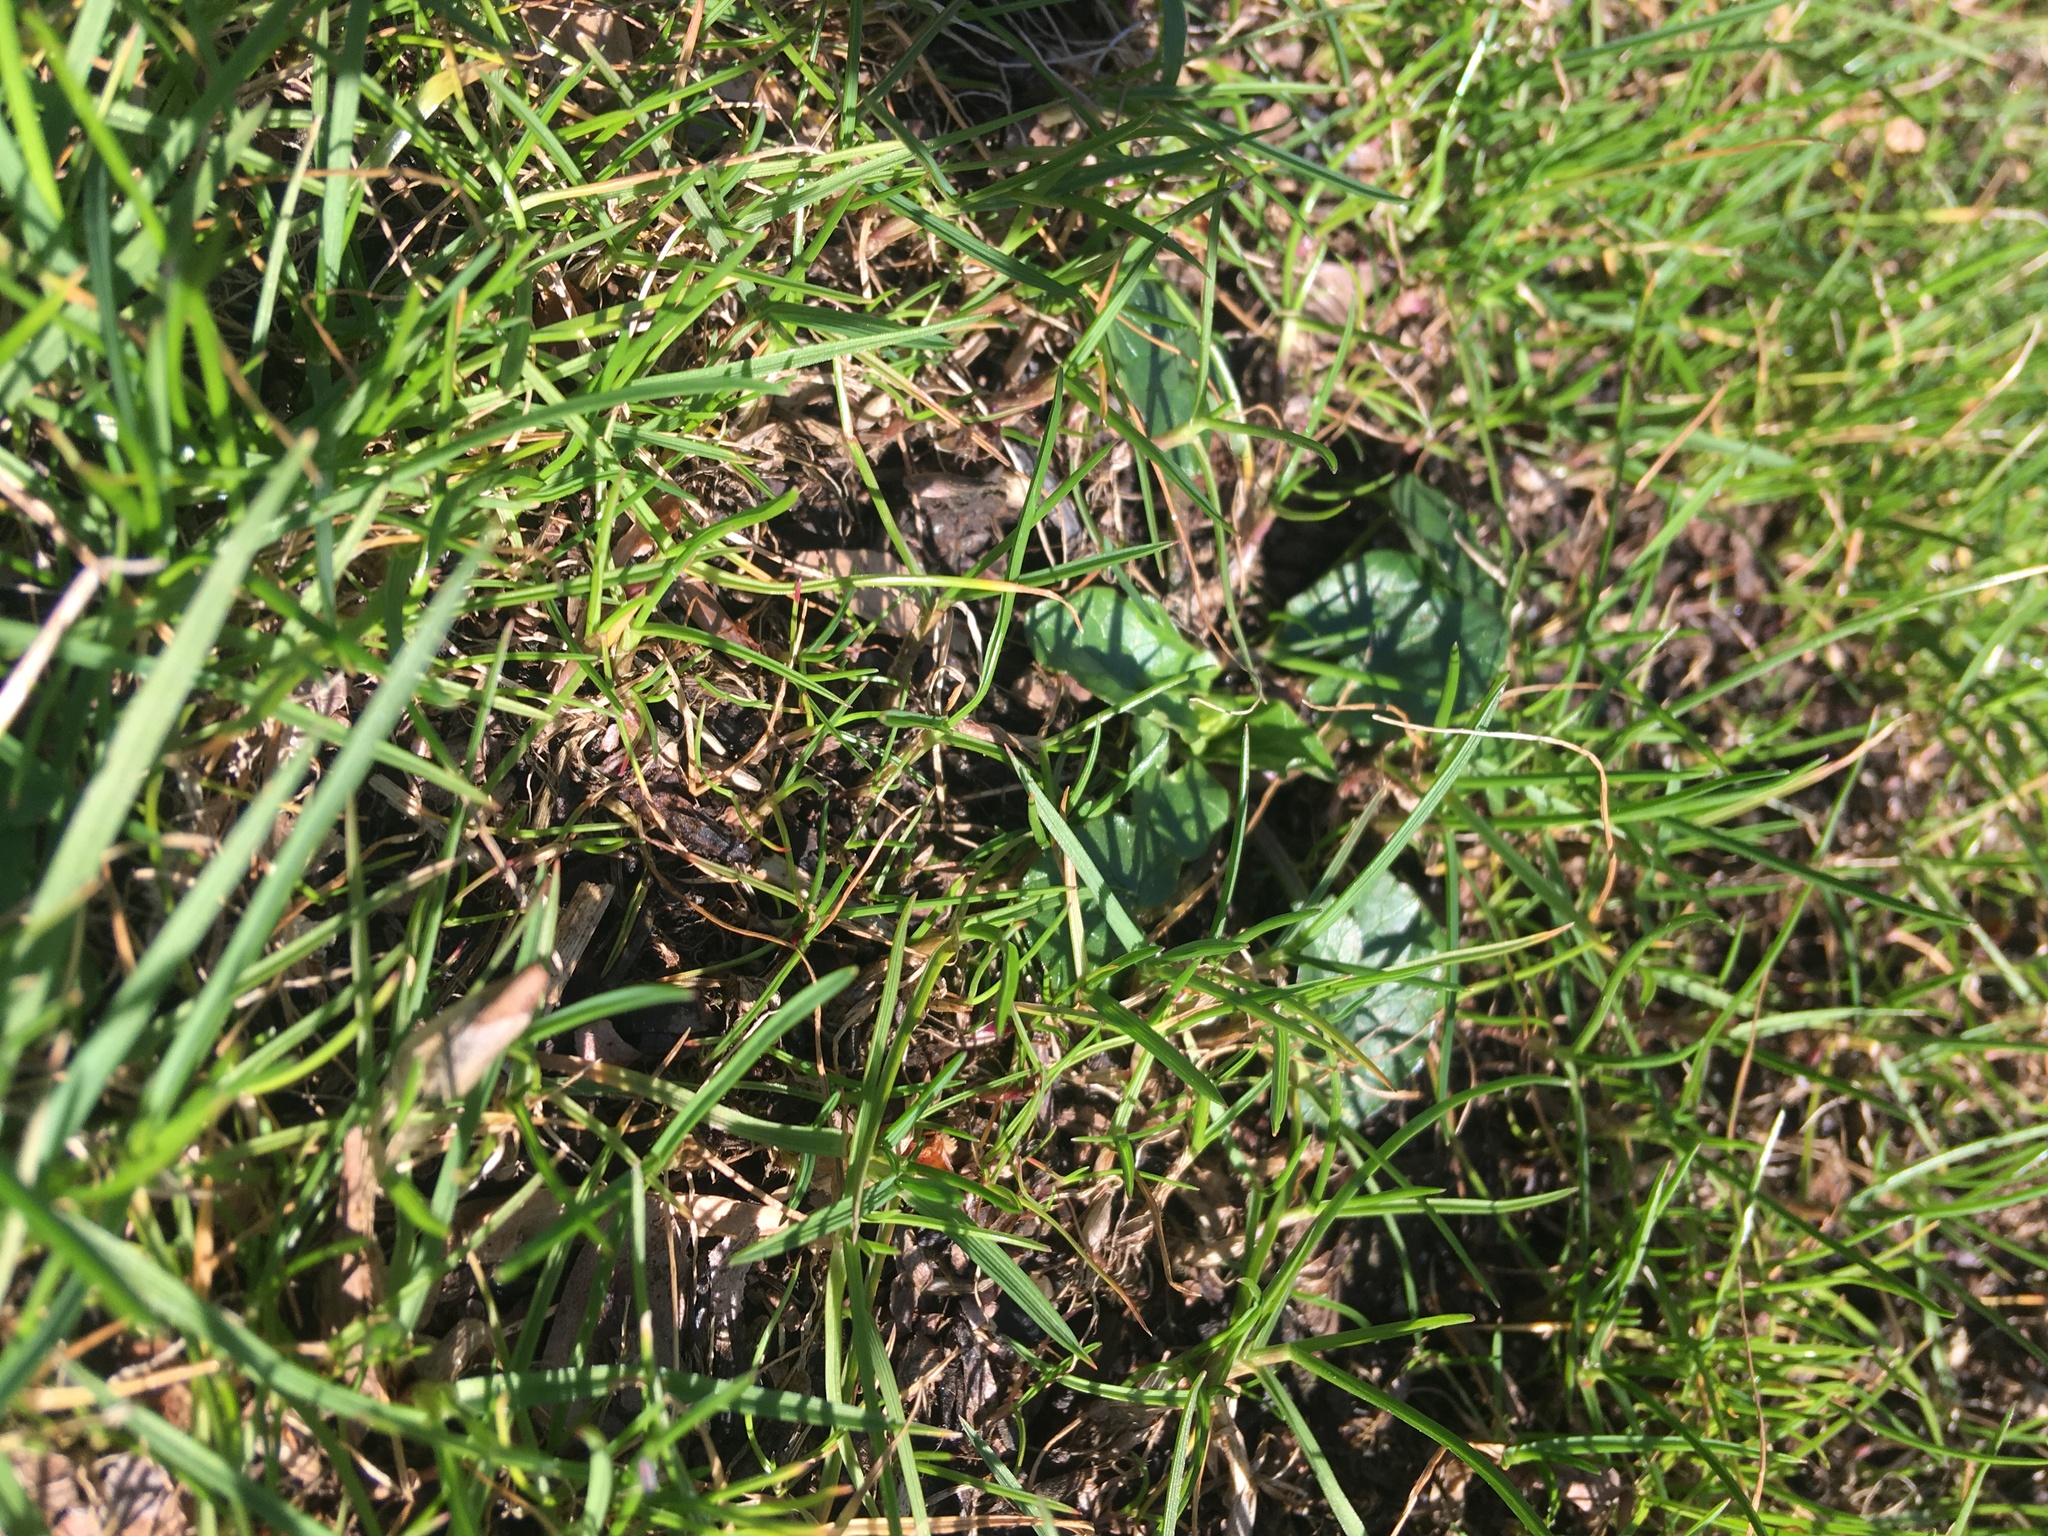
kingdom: Plantae
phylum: Tracheophyta
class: Magnoliopsida
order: Ranunculales
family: Ranunculaceae
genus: Ficaria
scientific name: Ficaria verna
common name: Lesser celandine
